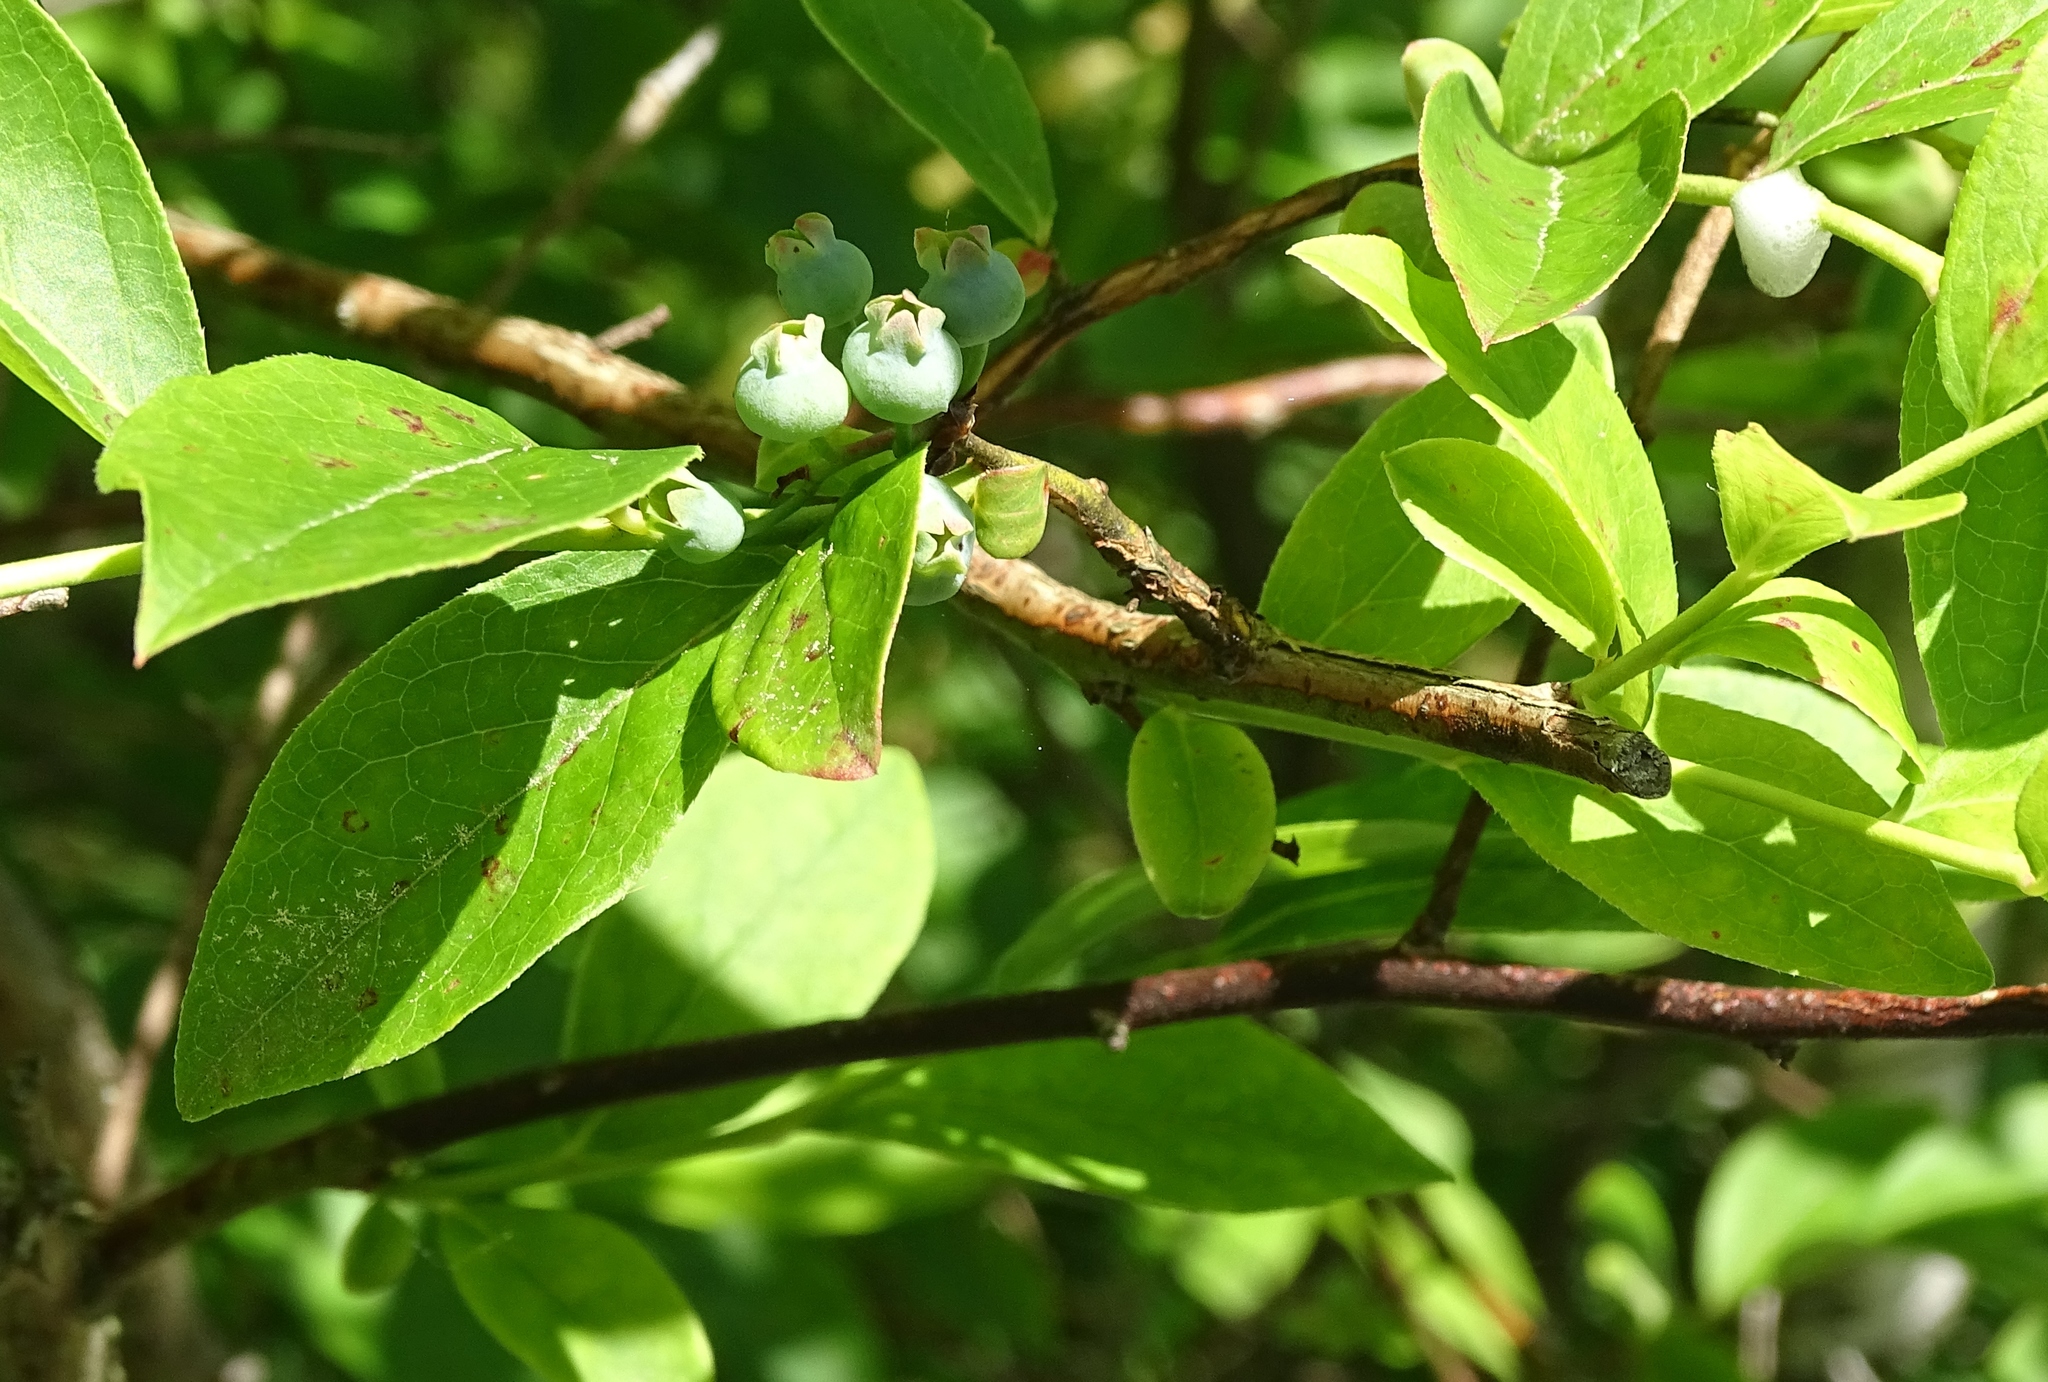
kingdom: Plantae
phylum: Tracheophyta
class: Magnoliopsida
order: Ericales
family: Ericaceae
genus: Vaccinium
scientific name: Vaccinium corymbosum
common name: Blueberry
